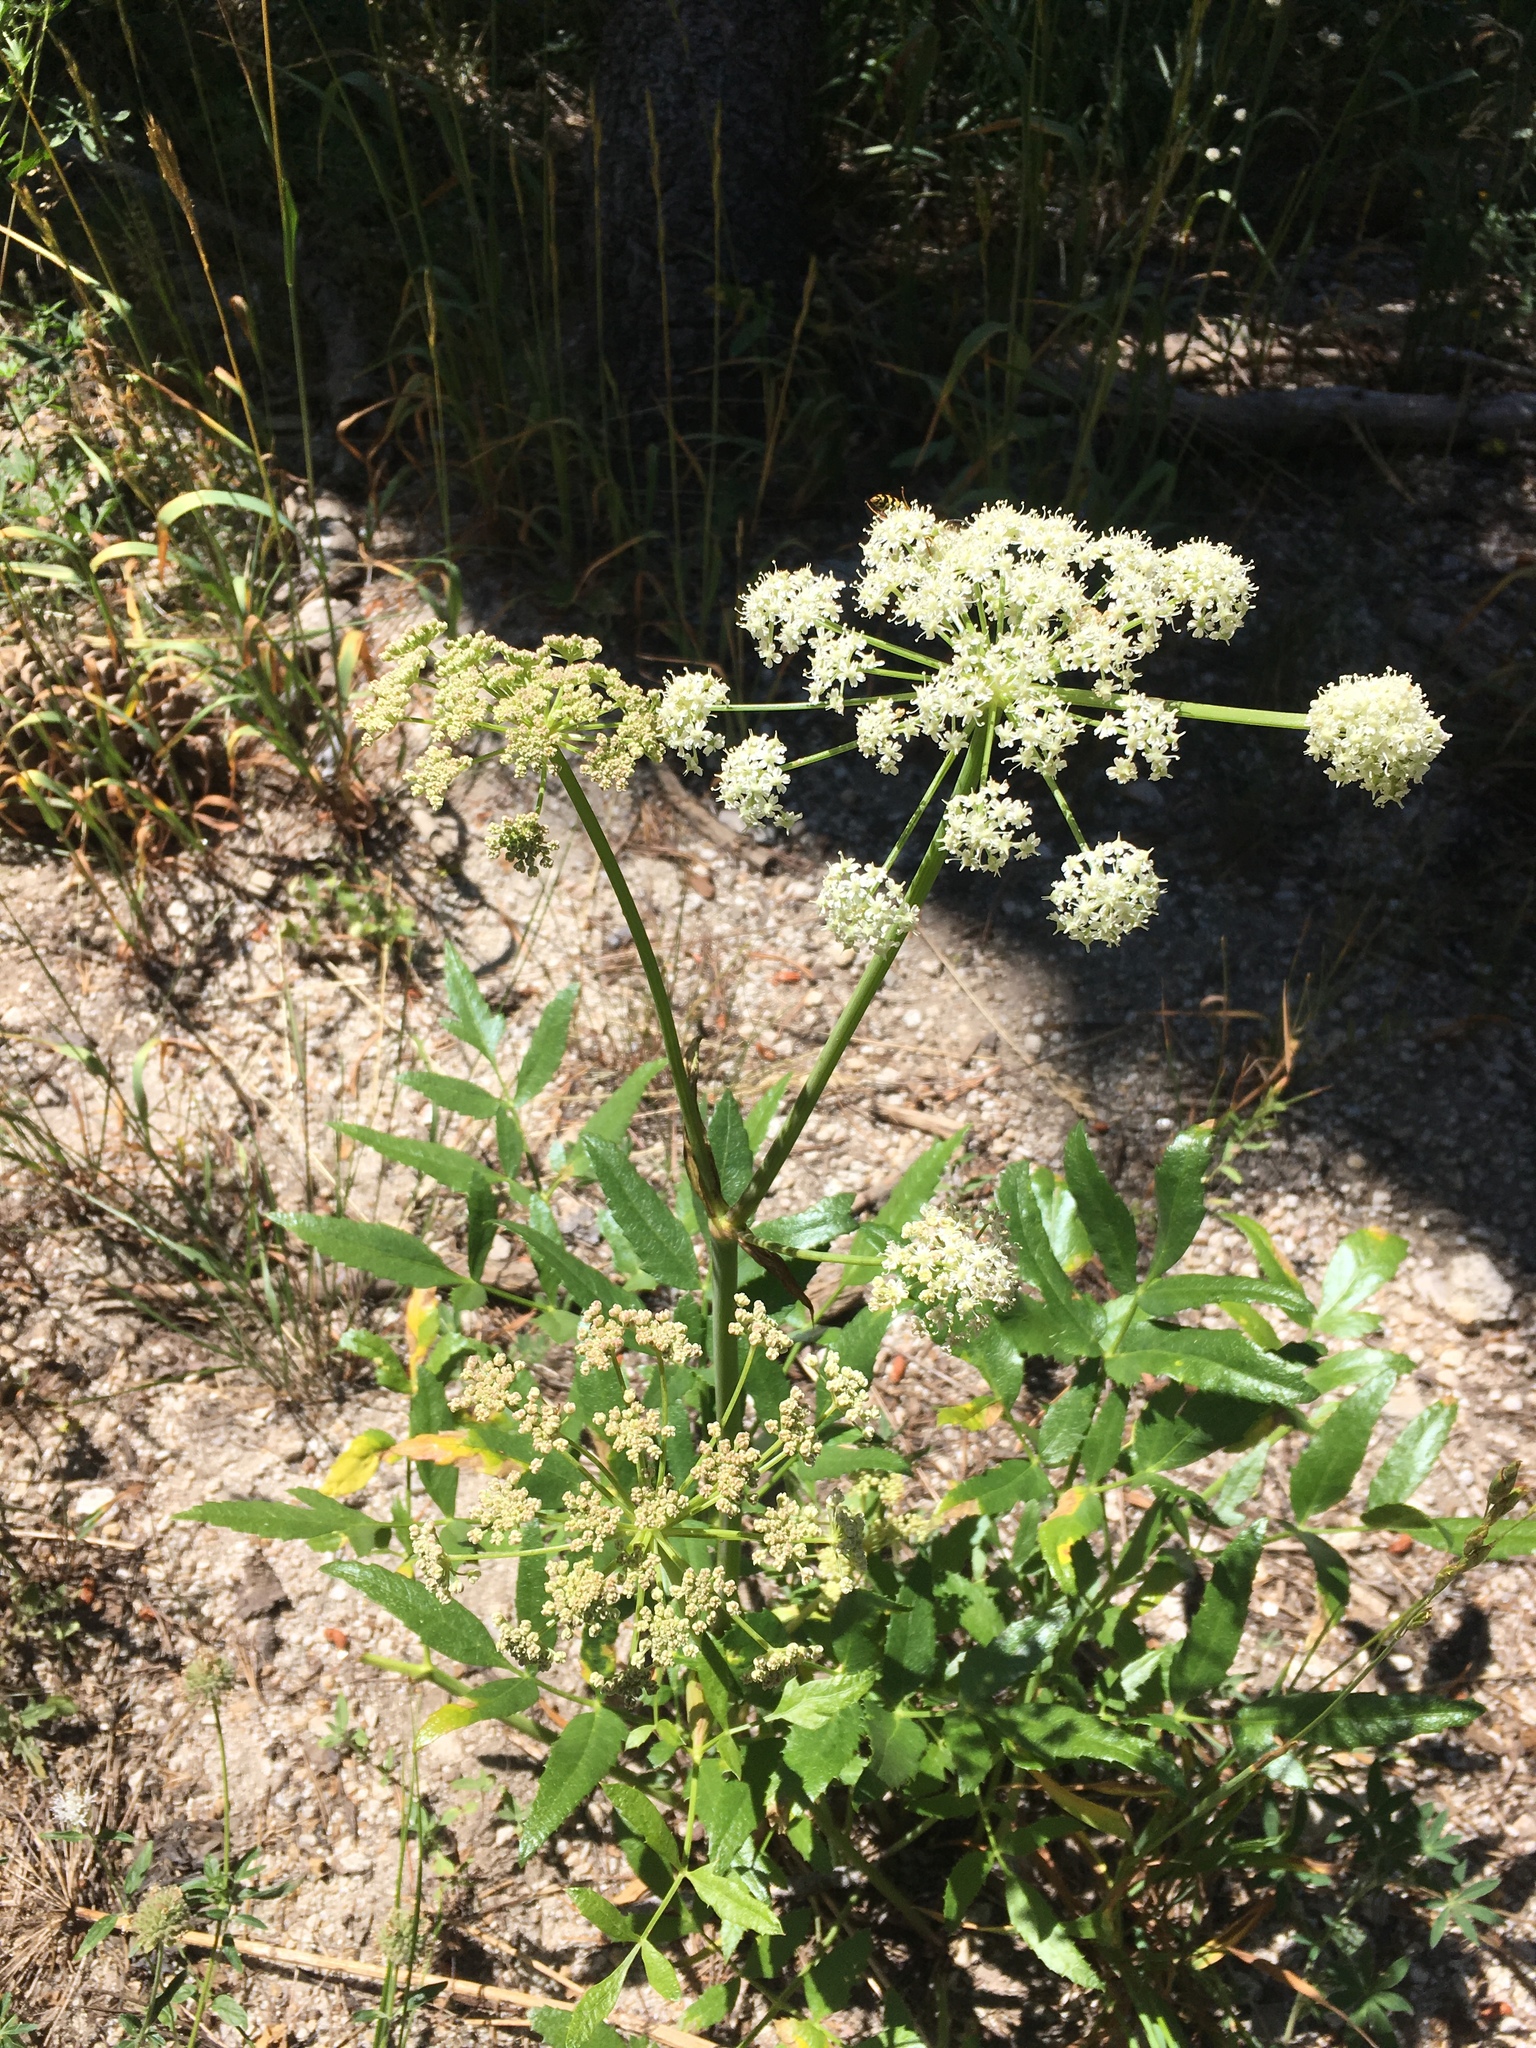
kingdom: Plantae
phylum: Tracheophyta
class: Magnoliopsida
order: Apiales
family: Apiaceae
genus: Angelica
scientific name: Angelica breweri
